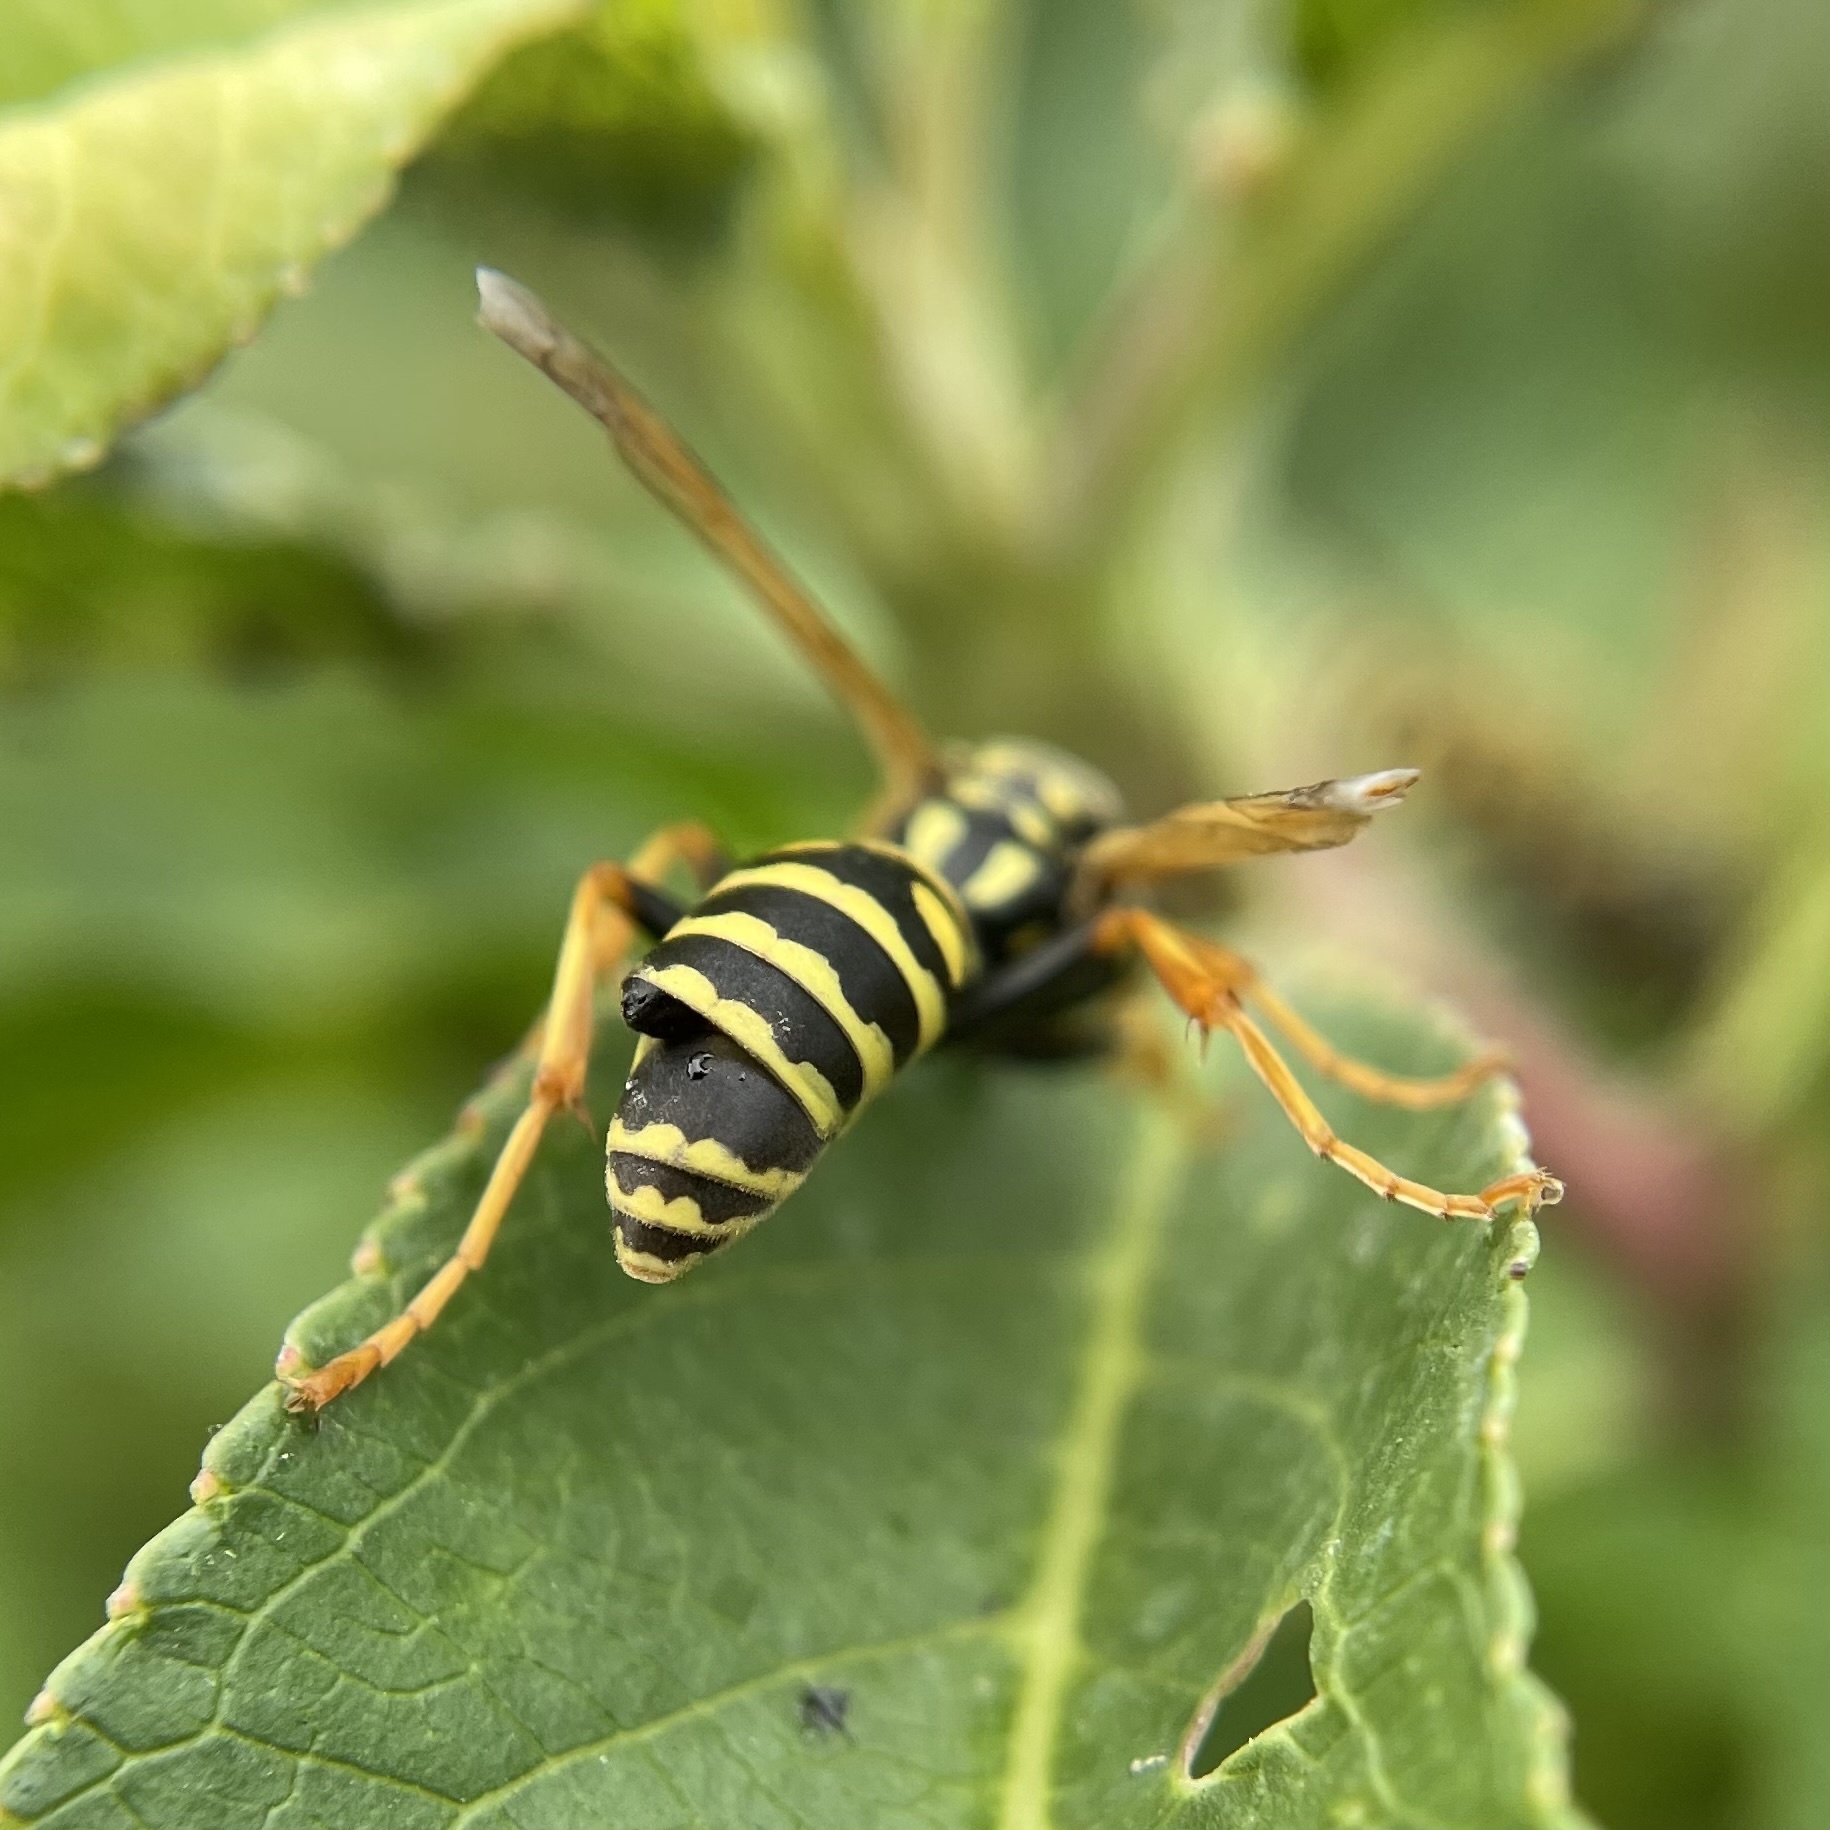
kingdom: Animalia
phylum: Arthropoda
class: Insecta
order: Strepsiptera
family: Xenidae
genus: Xenos
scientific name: Xenos vesparum
